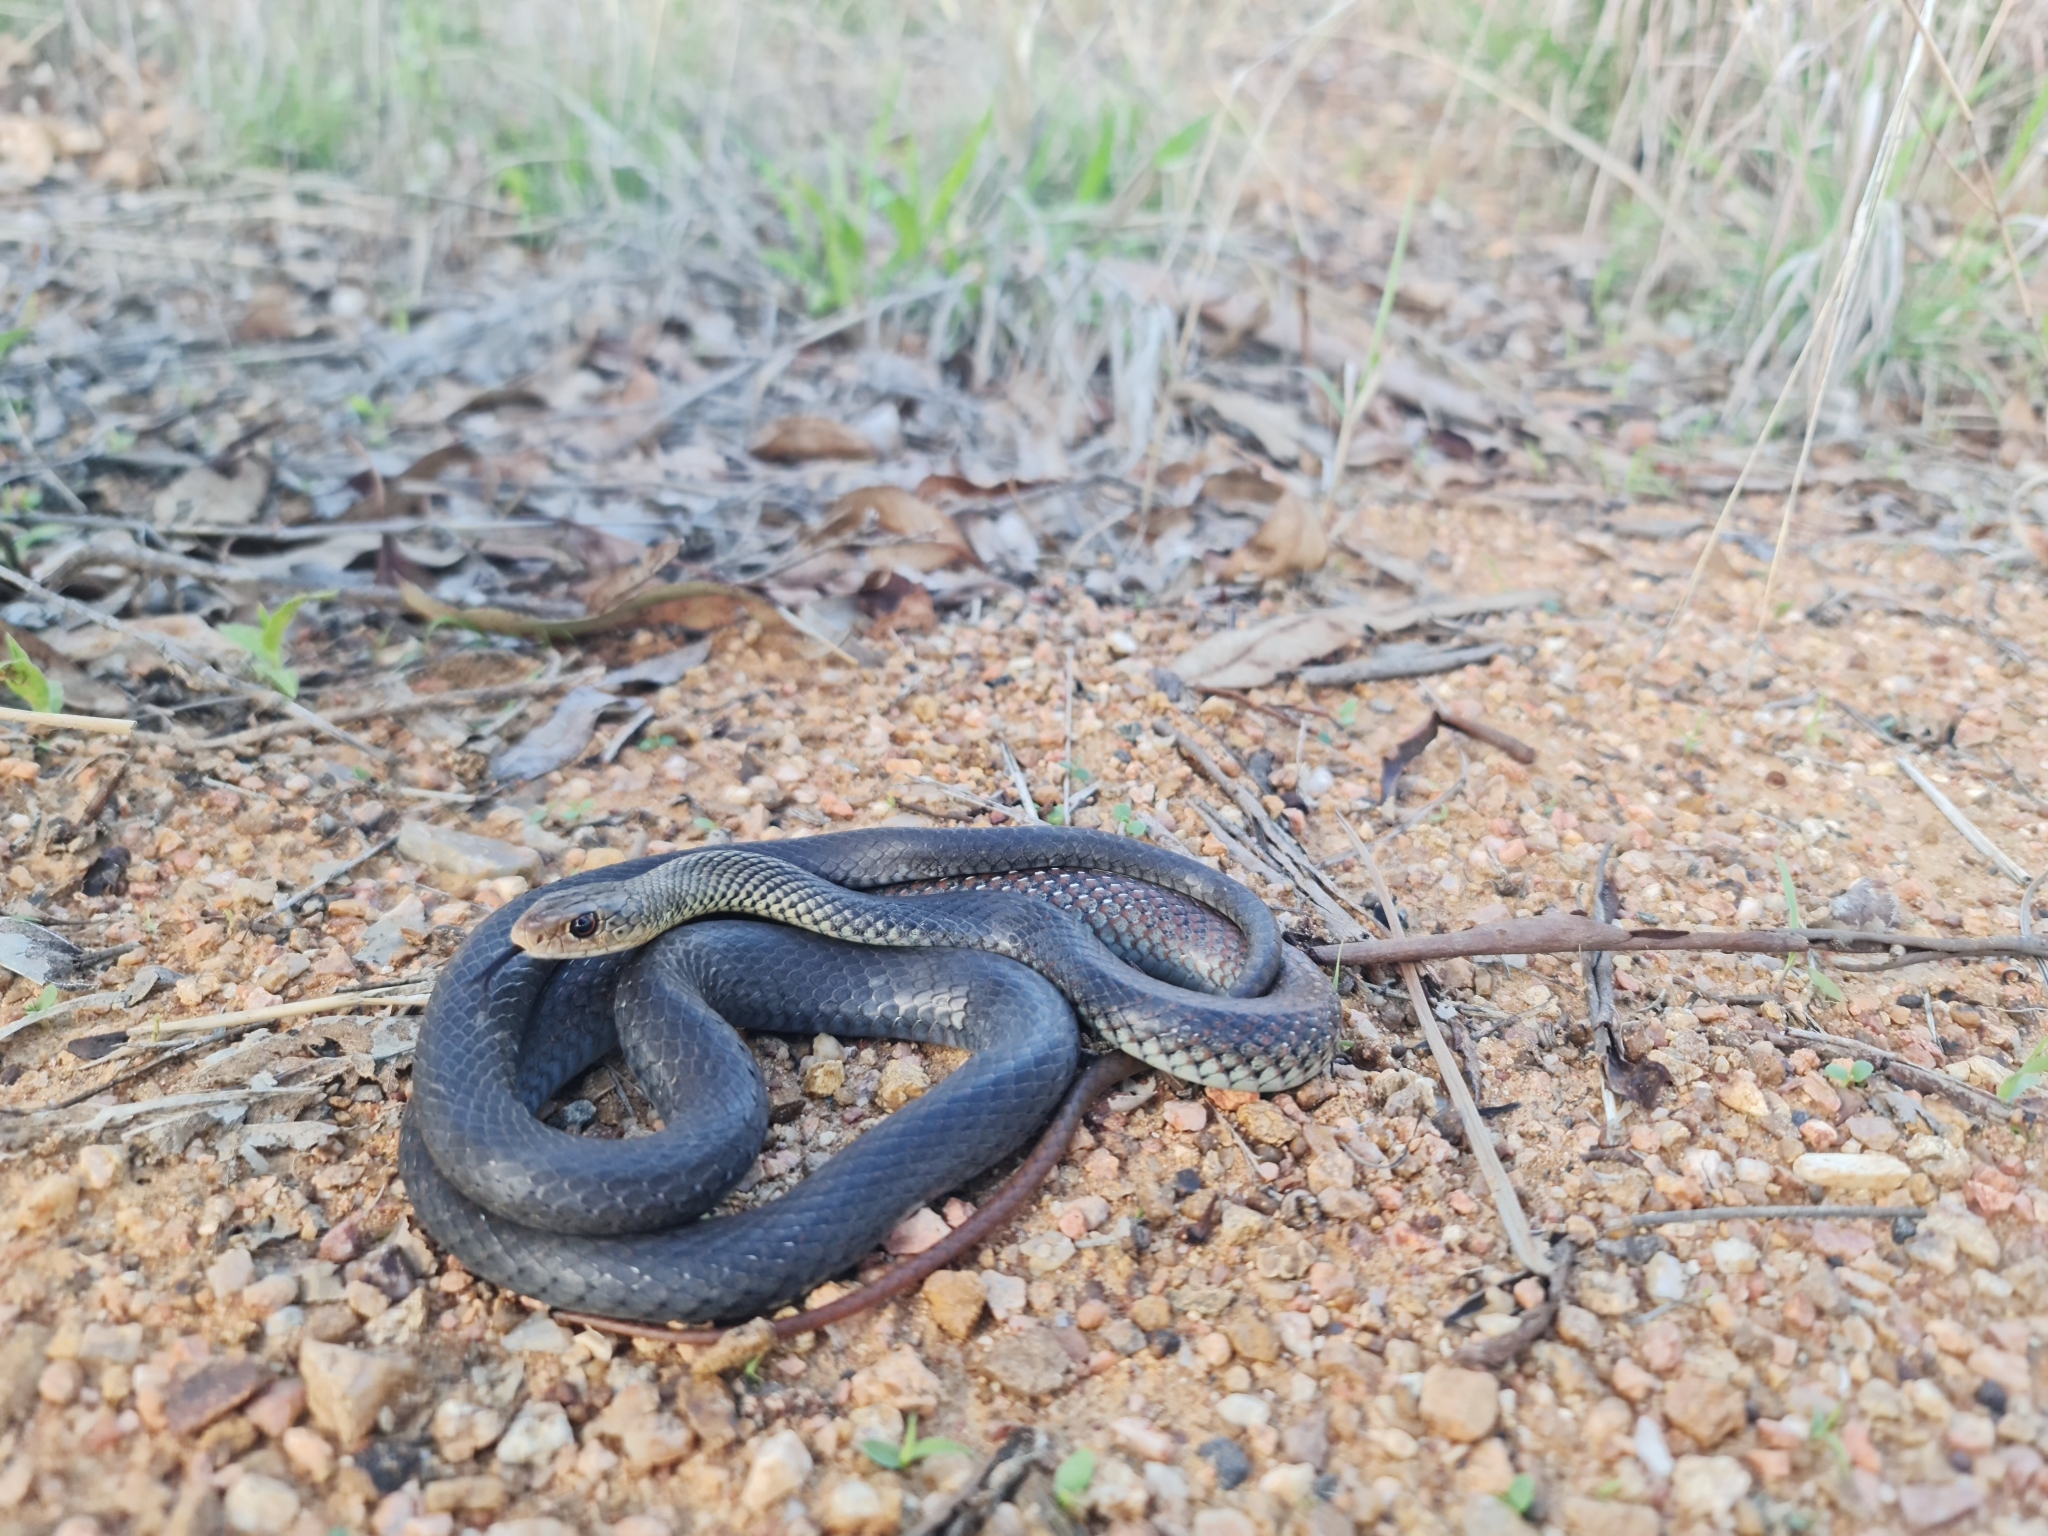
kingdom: Animalia
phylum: Chordata
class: Squamata
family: Elapidae
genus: Demansia
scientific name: Demansia vestigiata
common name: Black whip snake
